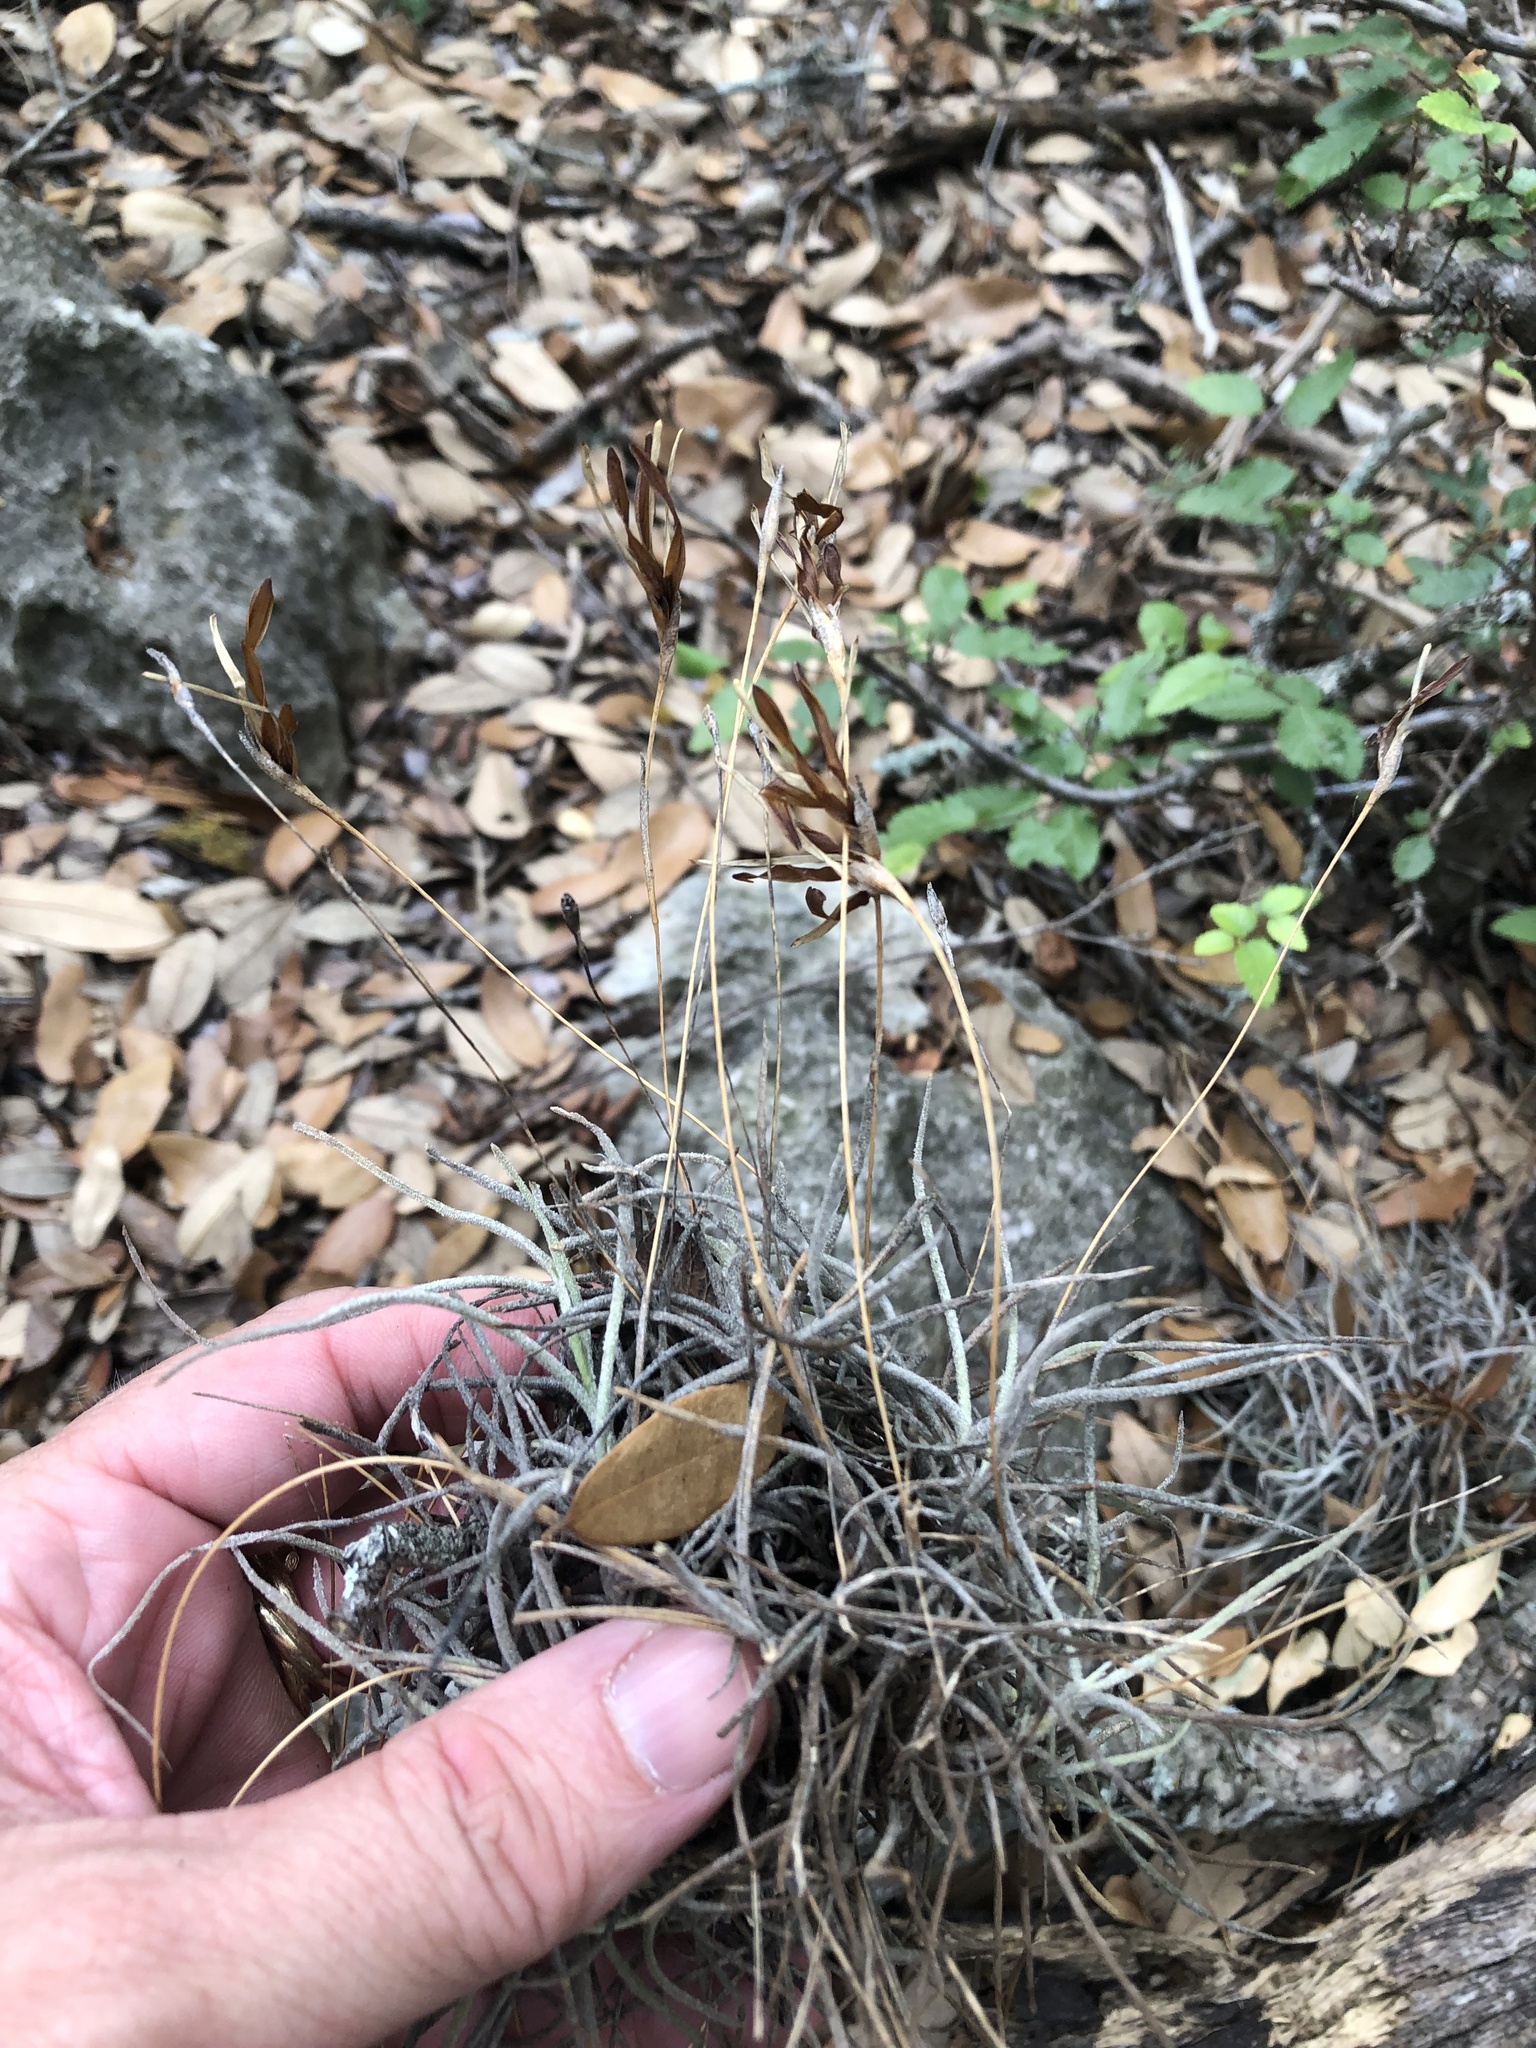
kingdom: Plantae
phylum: Tracheophyta
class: Liliopsida
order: Poales
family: Bromeliaceae
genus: Tillandsia
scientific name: Tillandsia recurvata
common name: Small ballmoss
